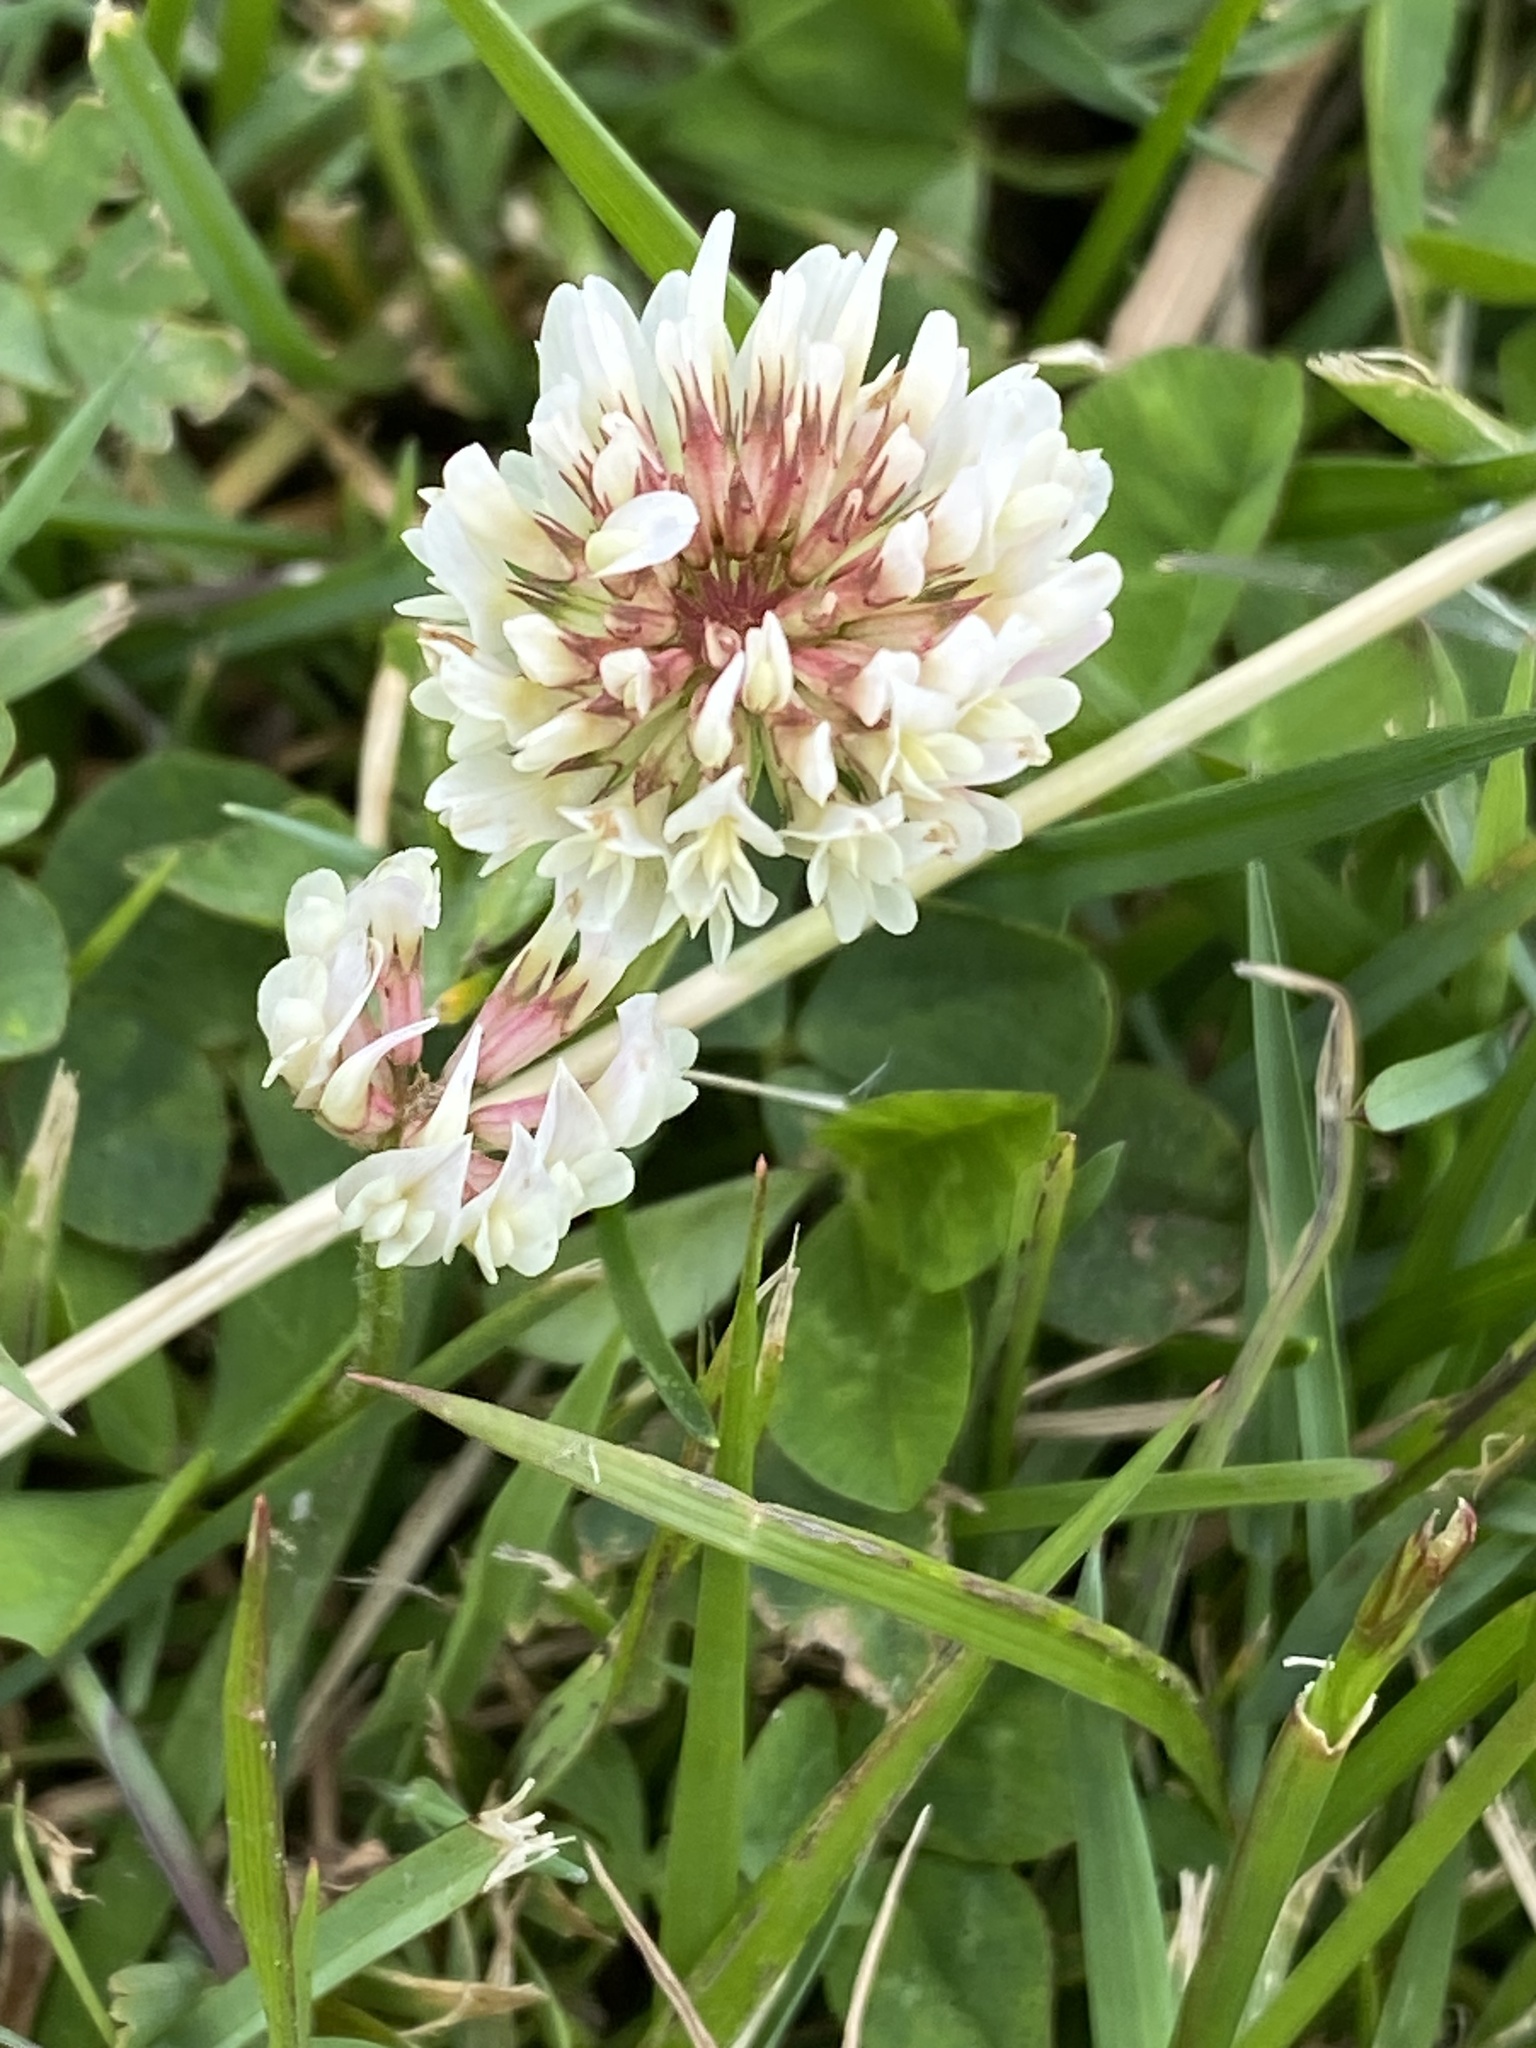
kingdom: Plantae
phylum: Tracheophyta
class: Magnoliopsida
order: Fabales
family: Fabaceae
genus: Trifolium
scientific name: Trifolium repens
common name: White clover
